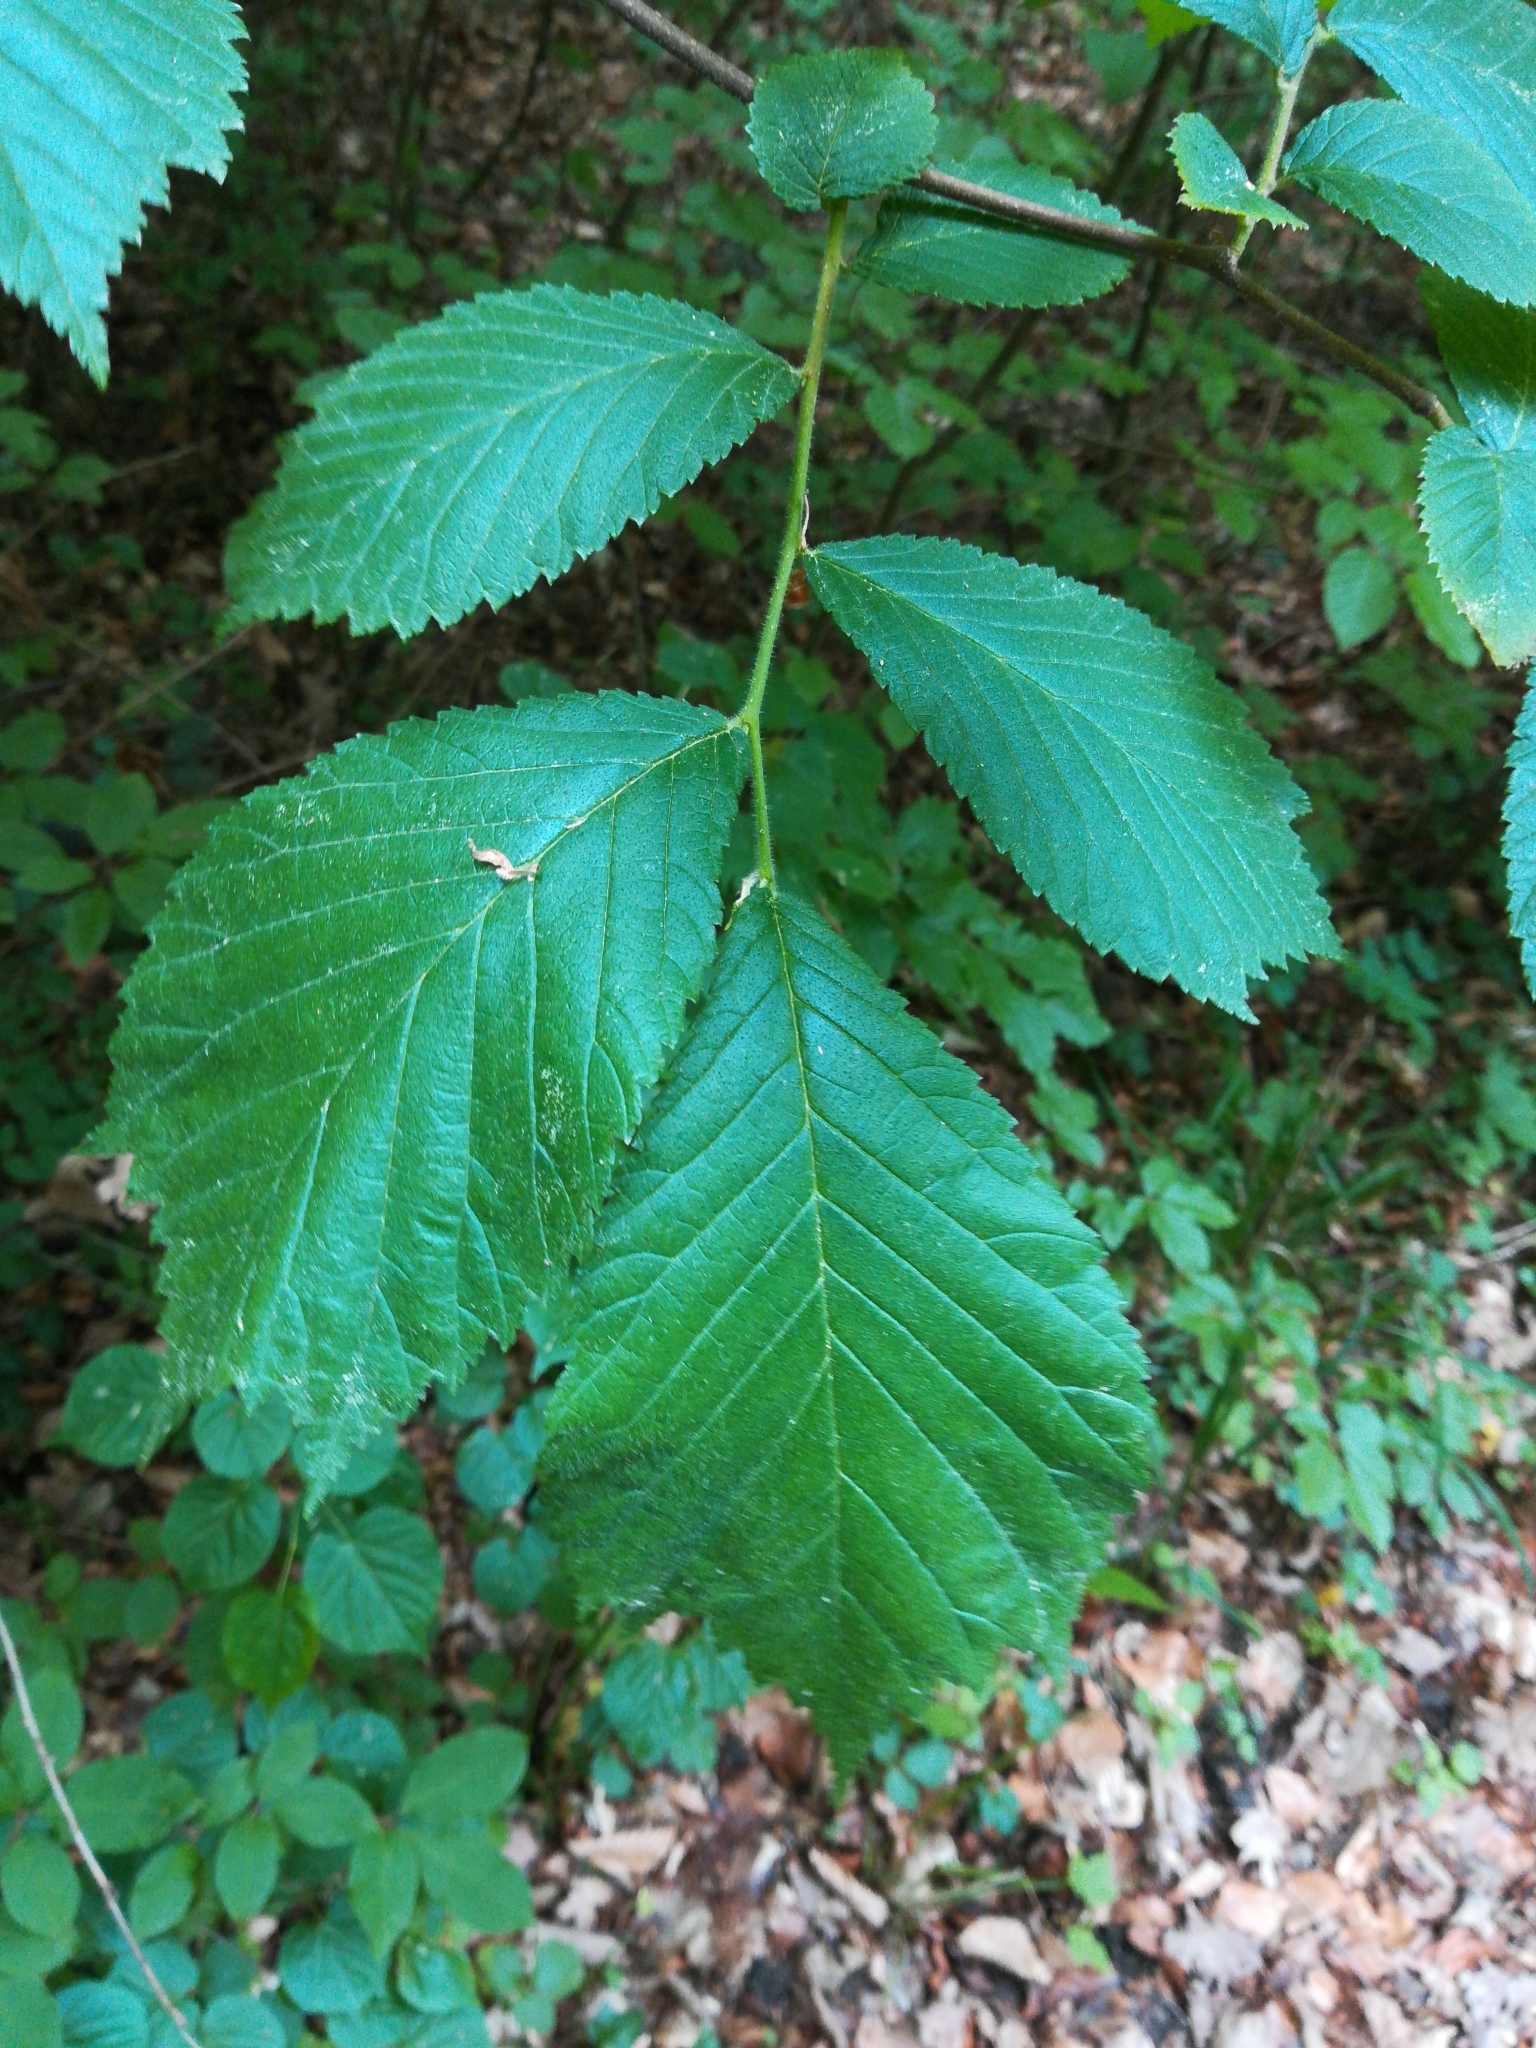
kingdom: Plantae
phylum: Tracheophyta
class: Magnoliopsida
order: Rosales
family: Ulmaceae
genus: Ulmus
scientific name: Ulmus glabra
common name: Wych elm
